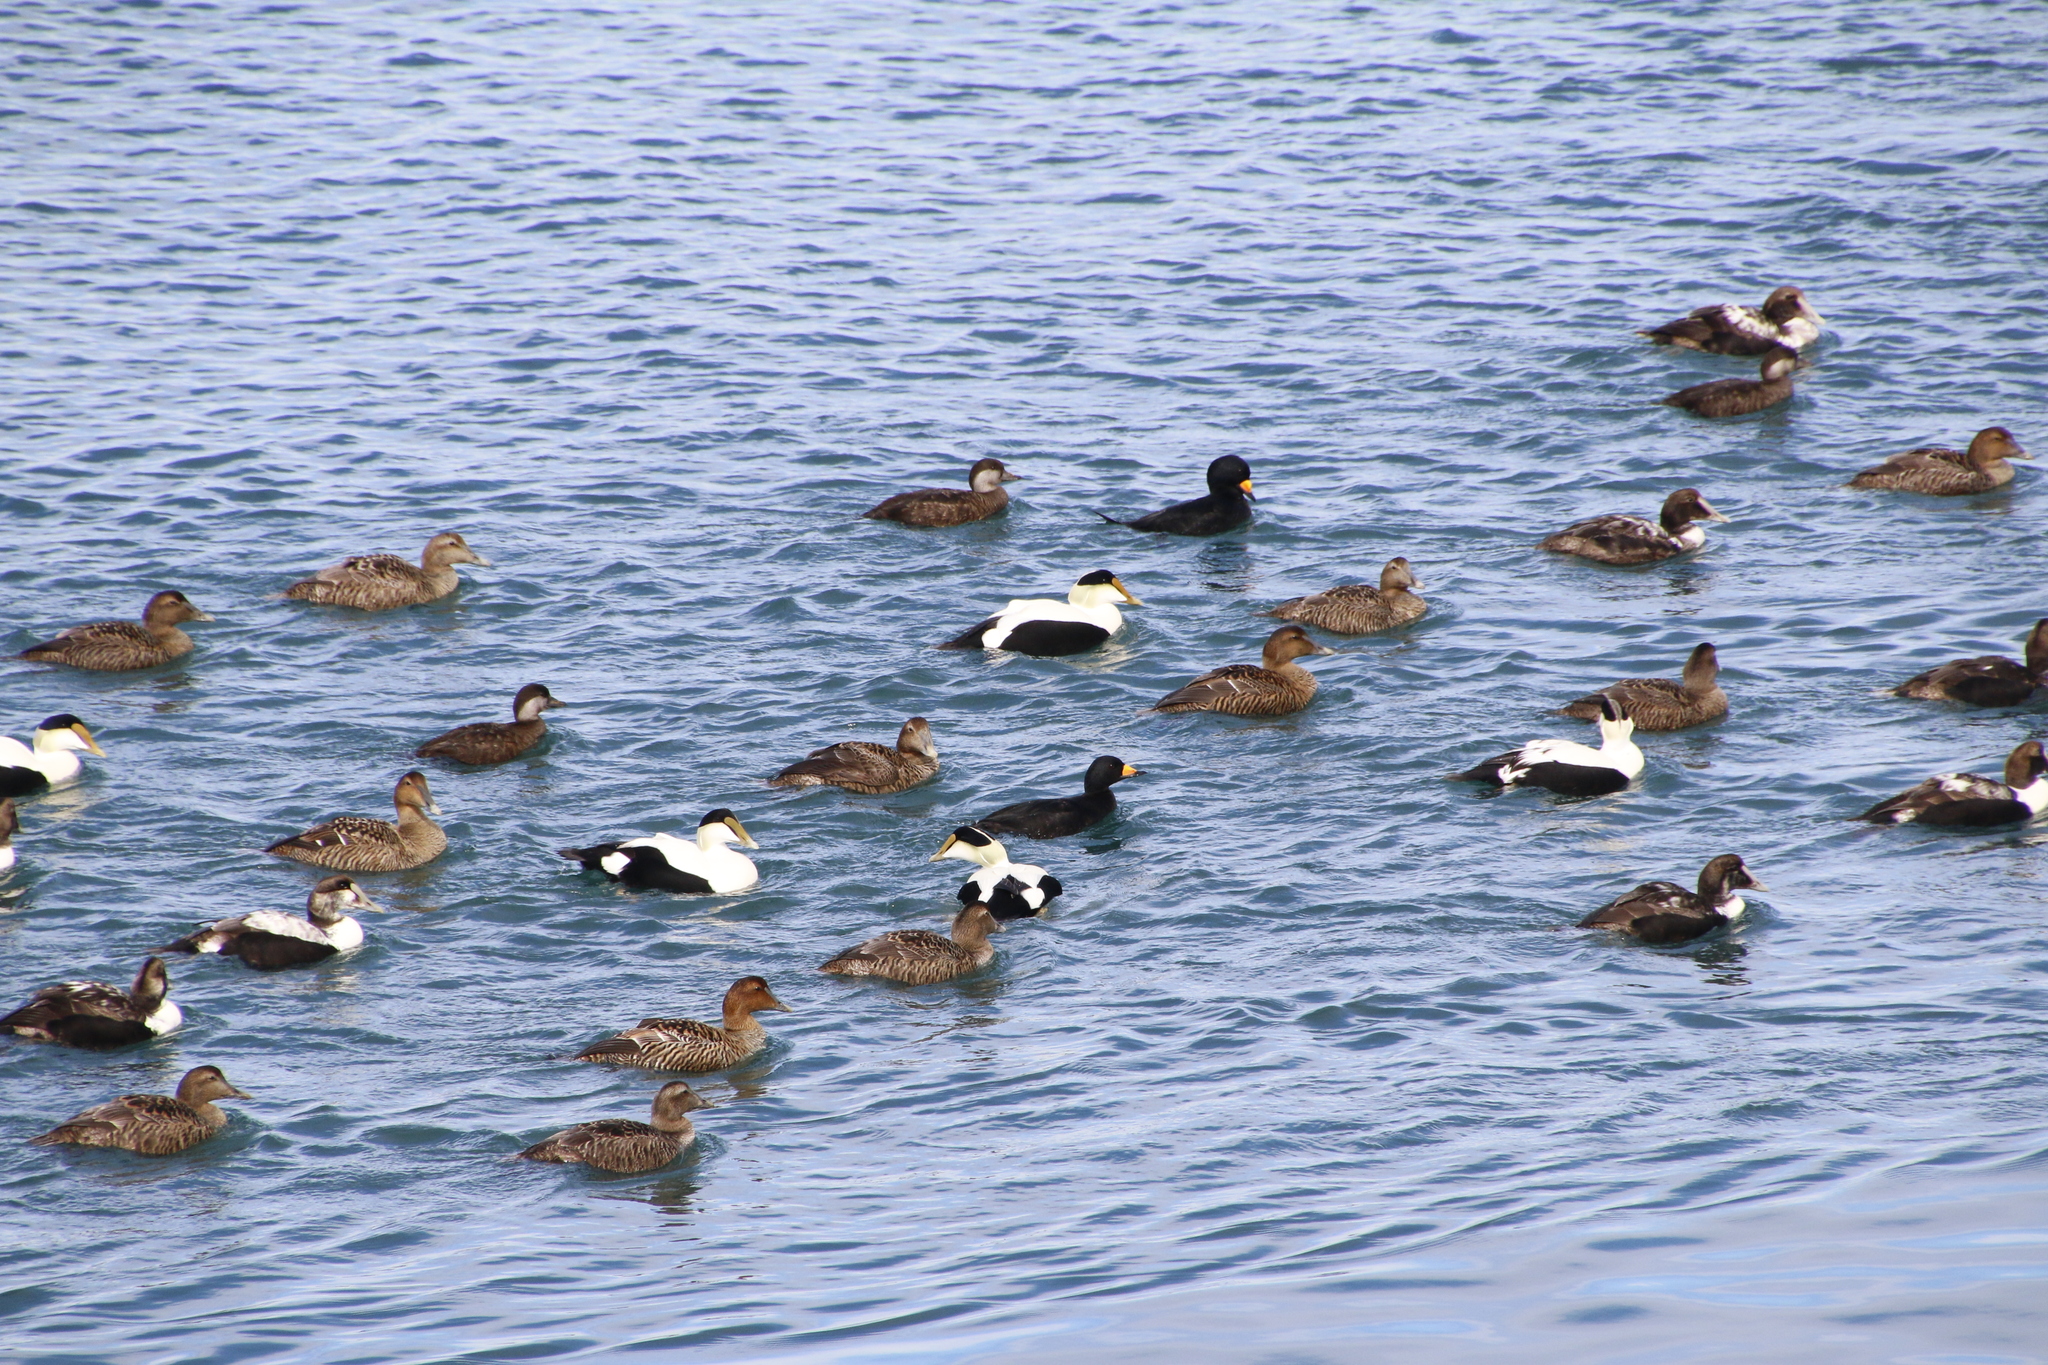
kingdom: Animalia
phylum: Chordata
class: Aves
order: Anseriformes
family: Anatidae
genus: Somateria
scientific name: Somateria mollissima
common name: Common eider
